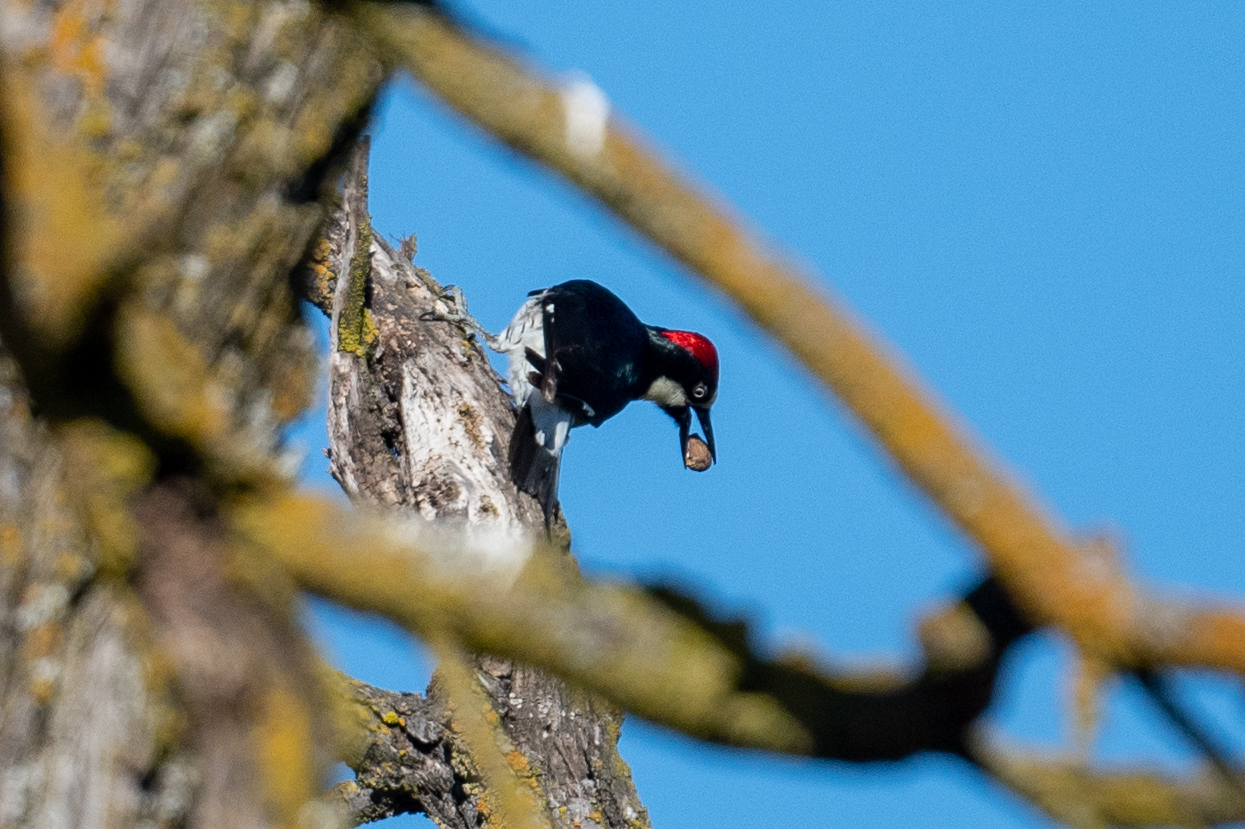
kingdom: Animalia
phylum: Chordata
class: Aves
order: Piciformes
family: Picidae
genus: Melanerpes
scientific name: Melanerpes formicivorus
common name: Acorn woodpecker
